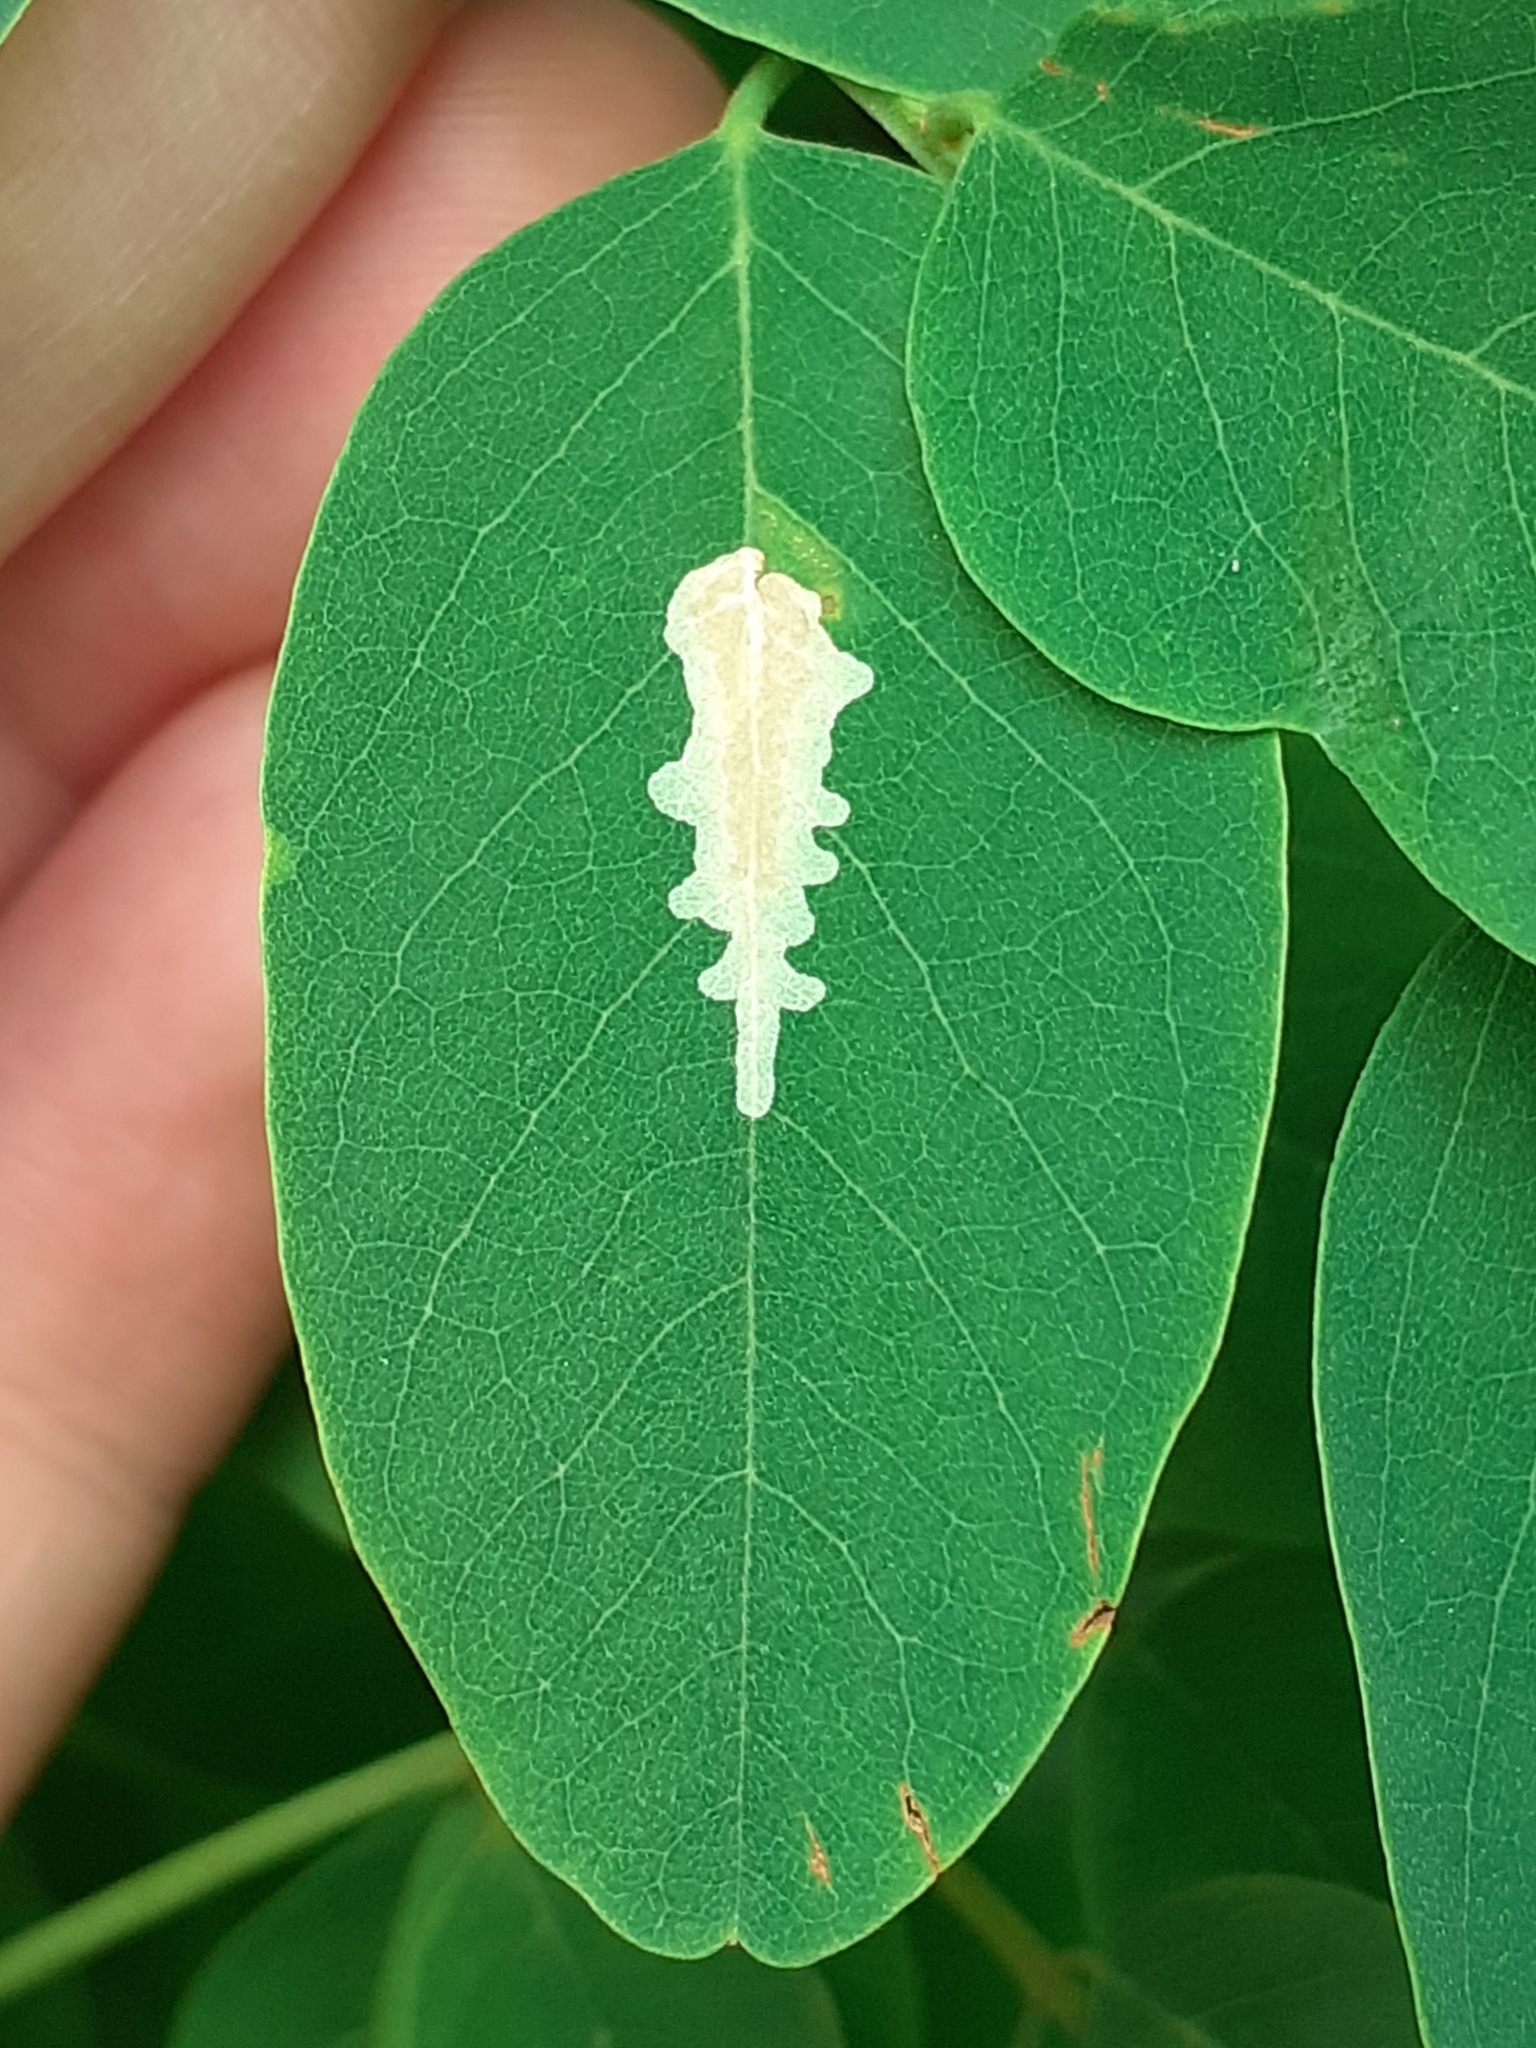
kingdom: Animalia
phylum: Arthropoda
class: Insecta
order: Lepidoptera
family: Gracillariidae
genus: Parectopa
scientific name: Parectopa robiniella
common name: Locust digitate leafminer
